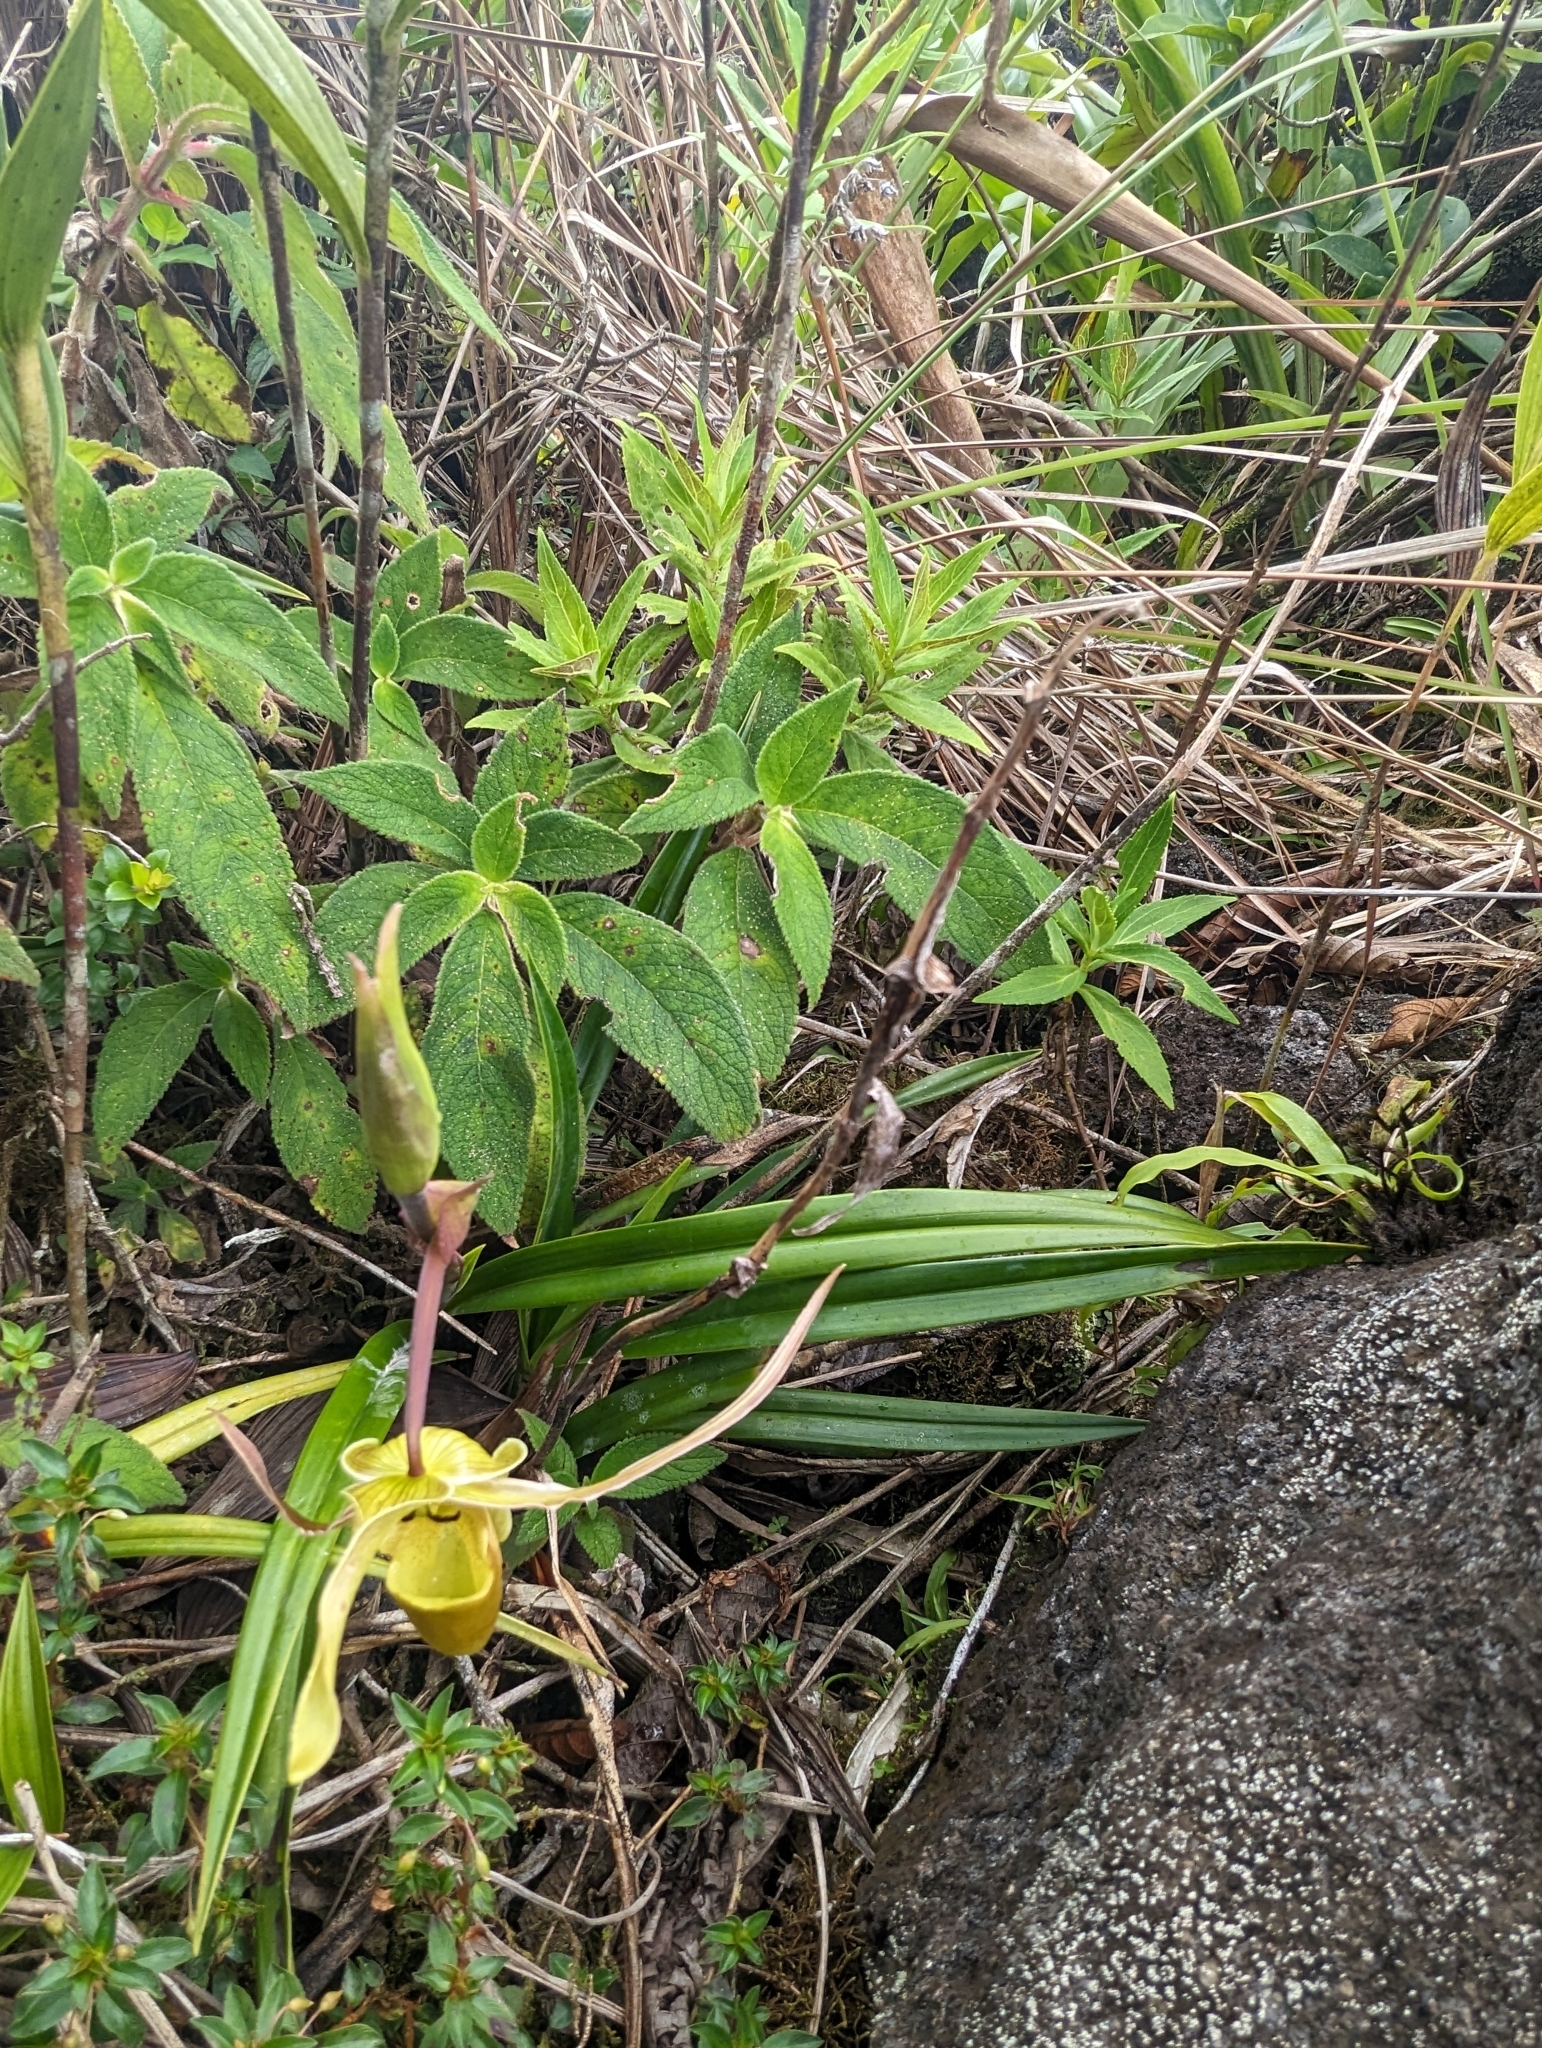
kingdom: Plantae
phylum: Tracheophyta
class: Liliopsida
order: Asparagales
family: Orchidaceae
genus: Phragmipedium
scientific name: Phragmipedium longifolium
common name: Long-leaf phragmipedium
